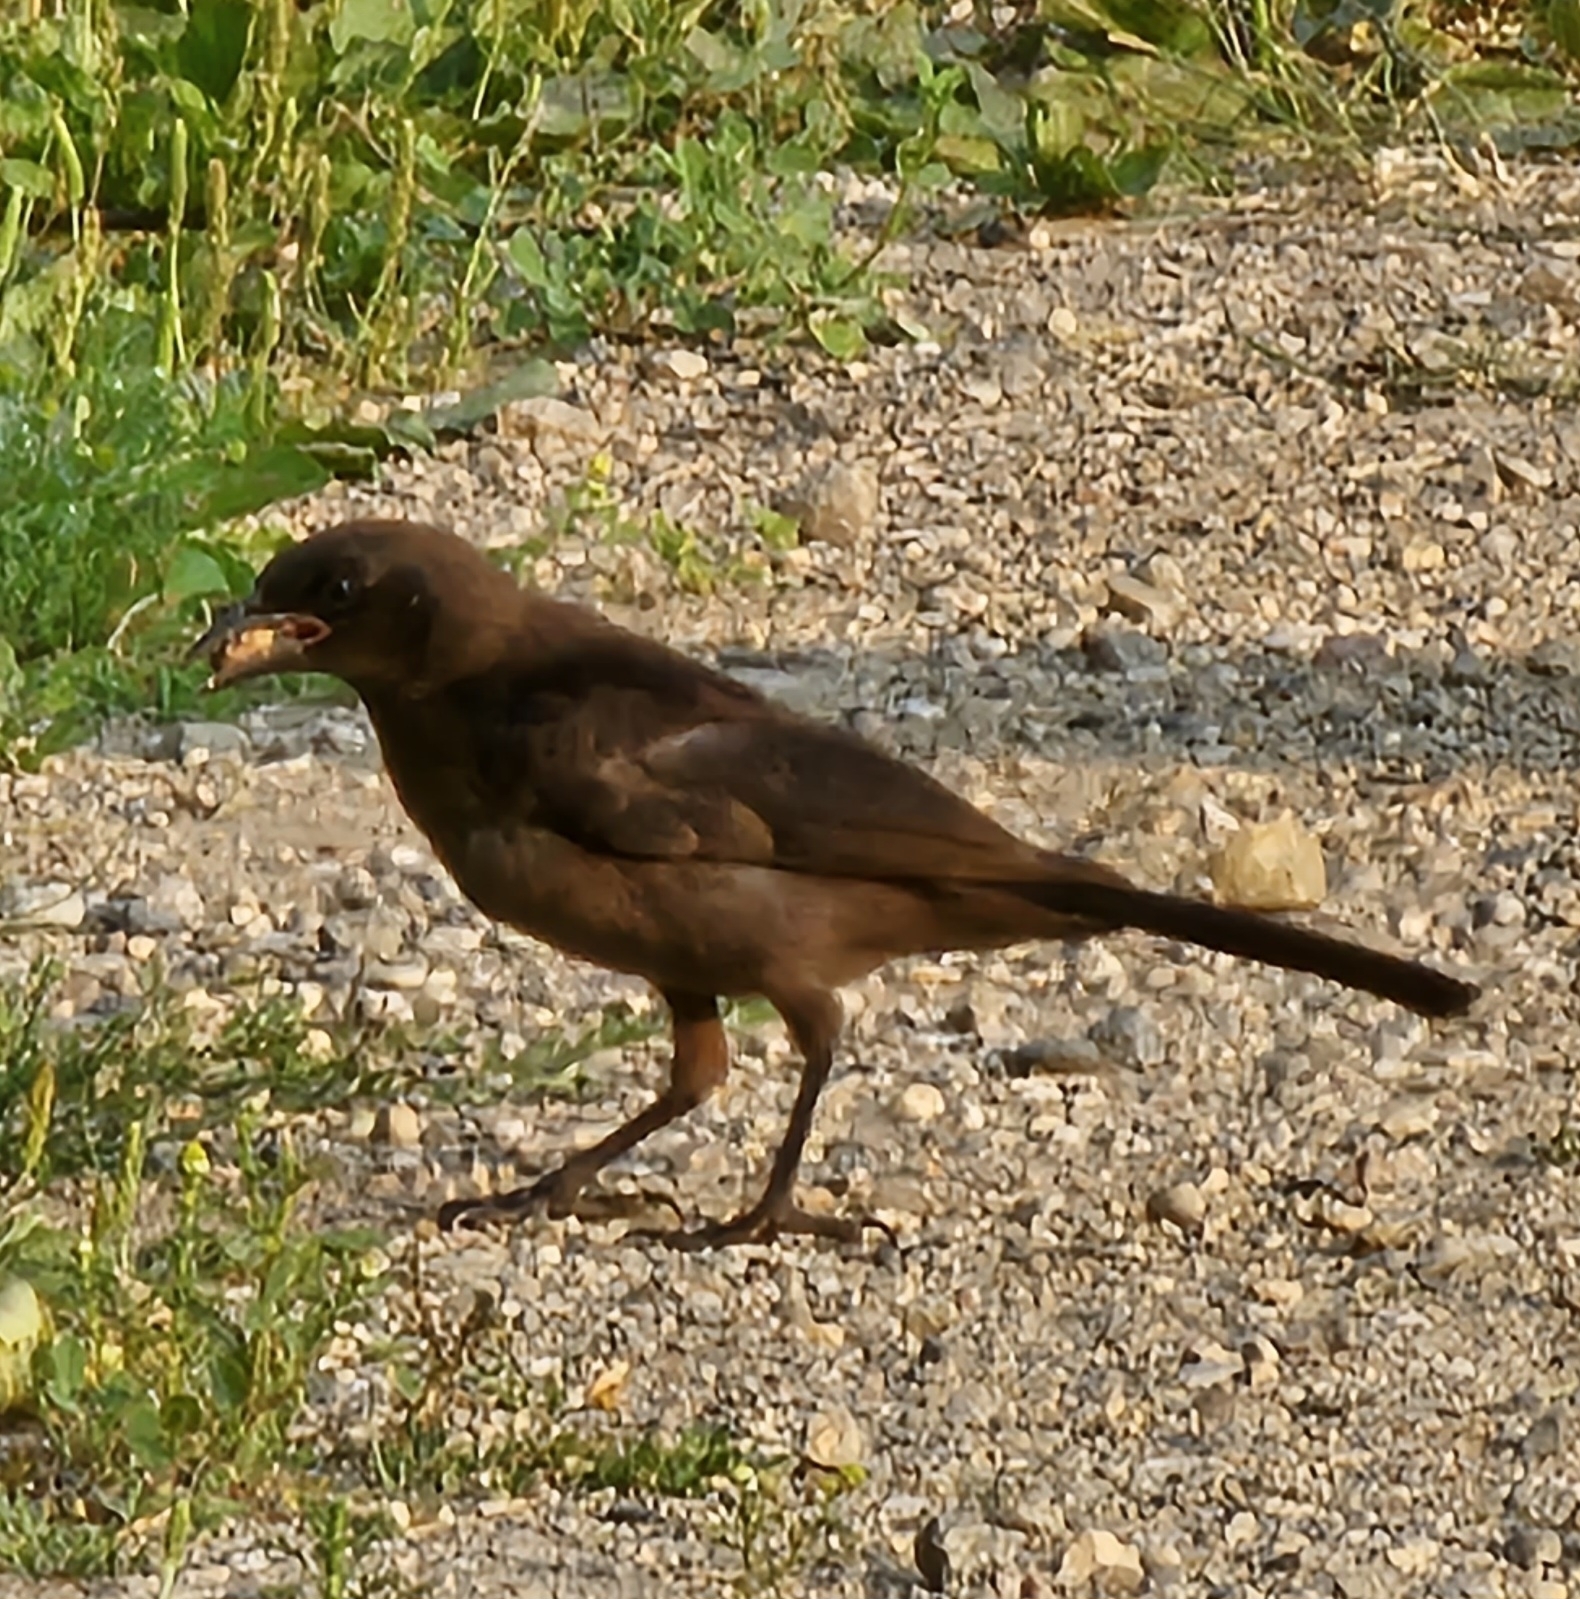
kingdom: Animalia
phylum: Chordata
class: Aves
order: Passeriformes
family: Icteridae
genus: Quiscalus
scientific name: Quiscalus quiscula
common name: Common grackle
